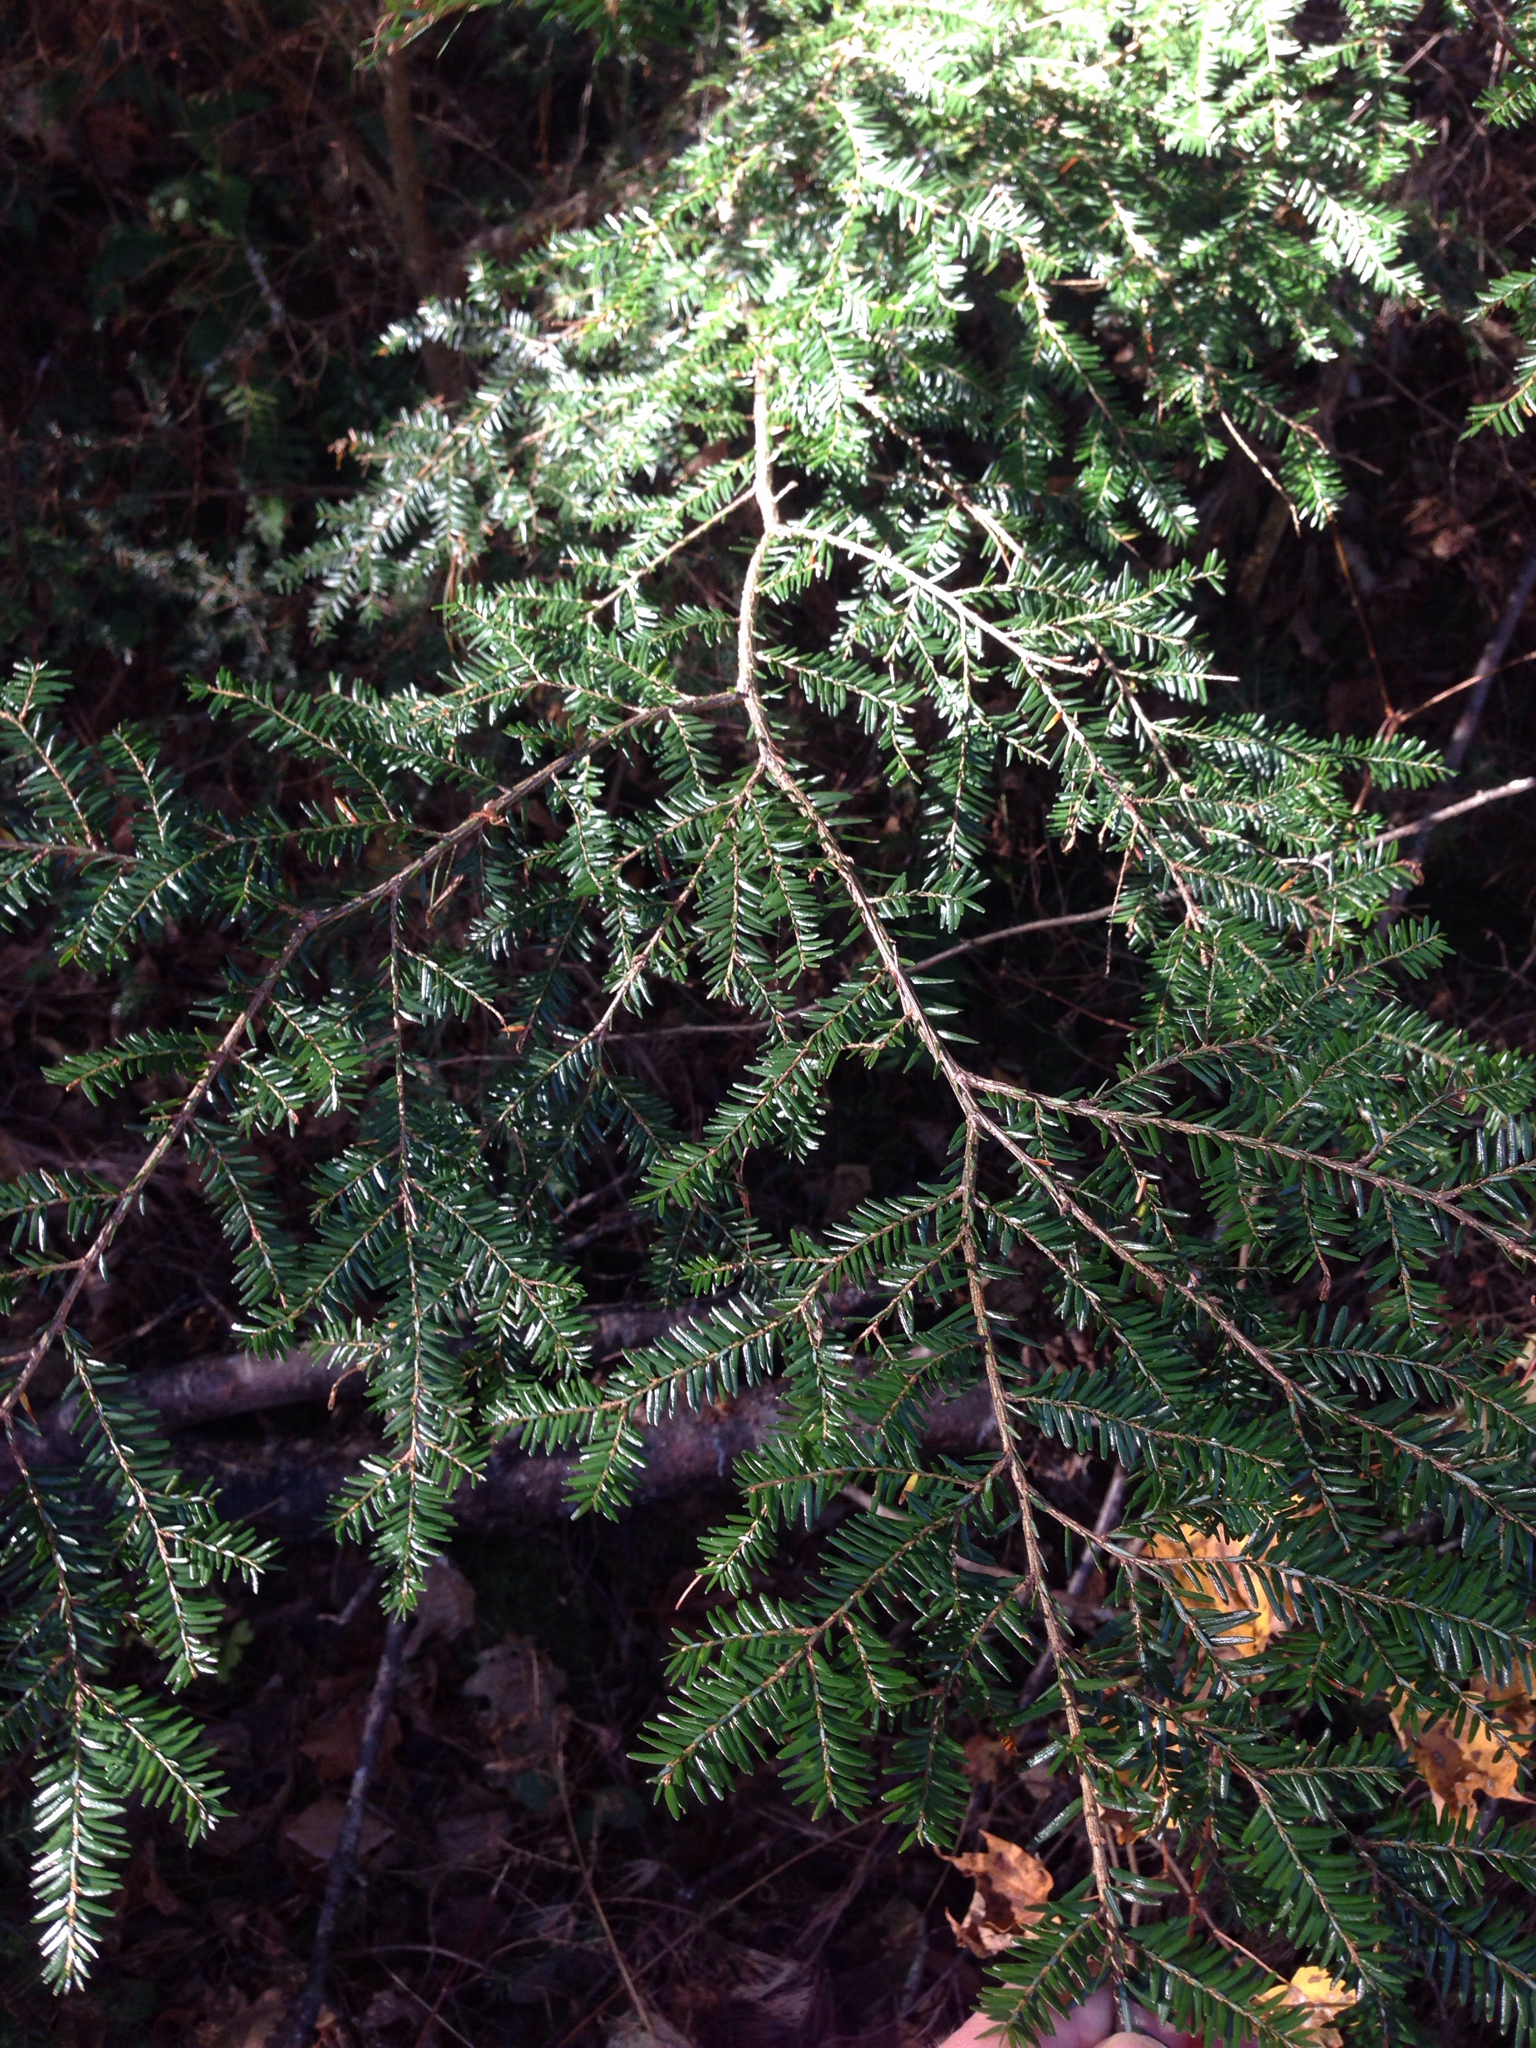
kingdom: Plantae
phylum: Tracheophyta
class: Pinopsida
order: Pinales
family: Pinaceae
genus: Tsuga
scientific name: Tsuga canadensis
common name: Eastern hemlock
